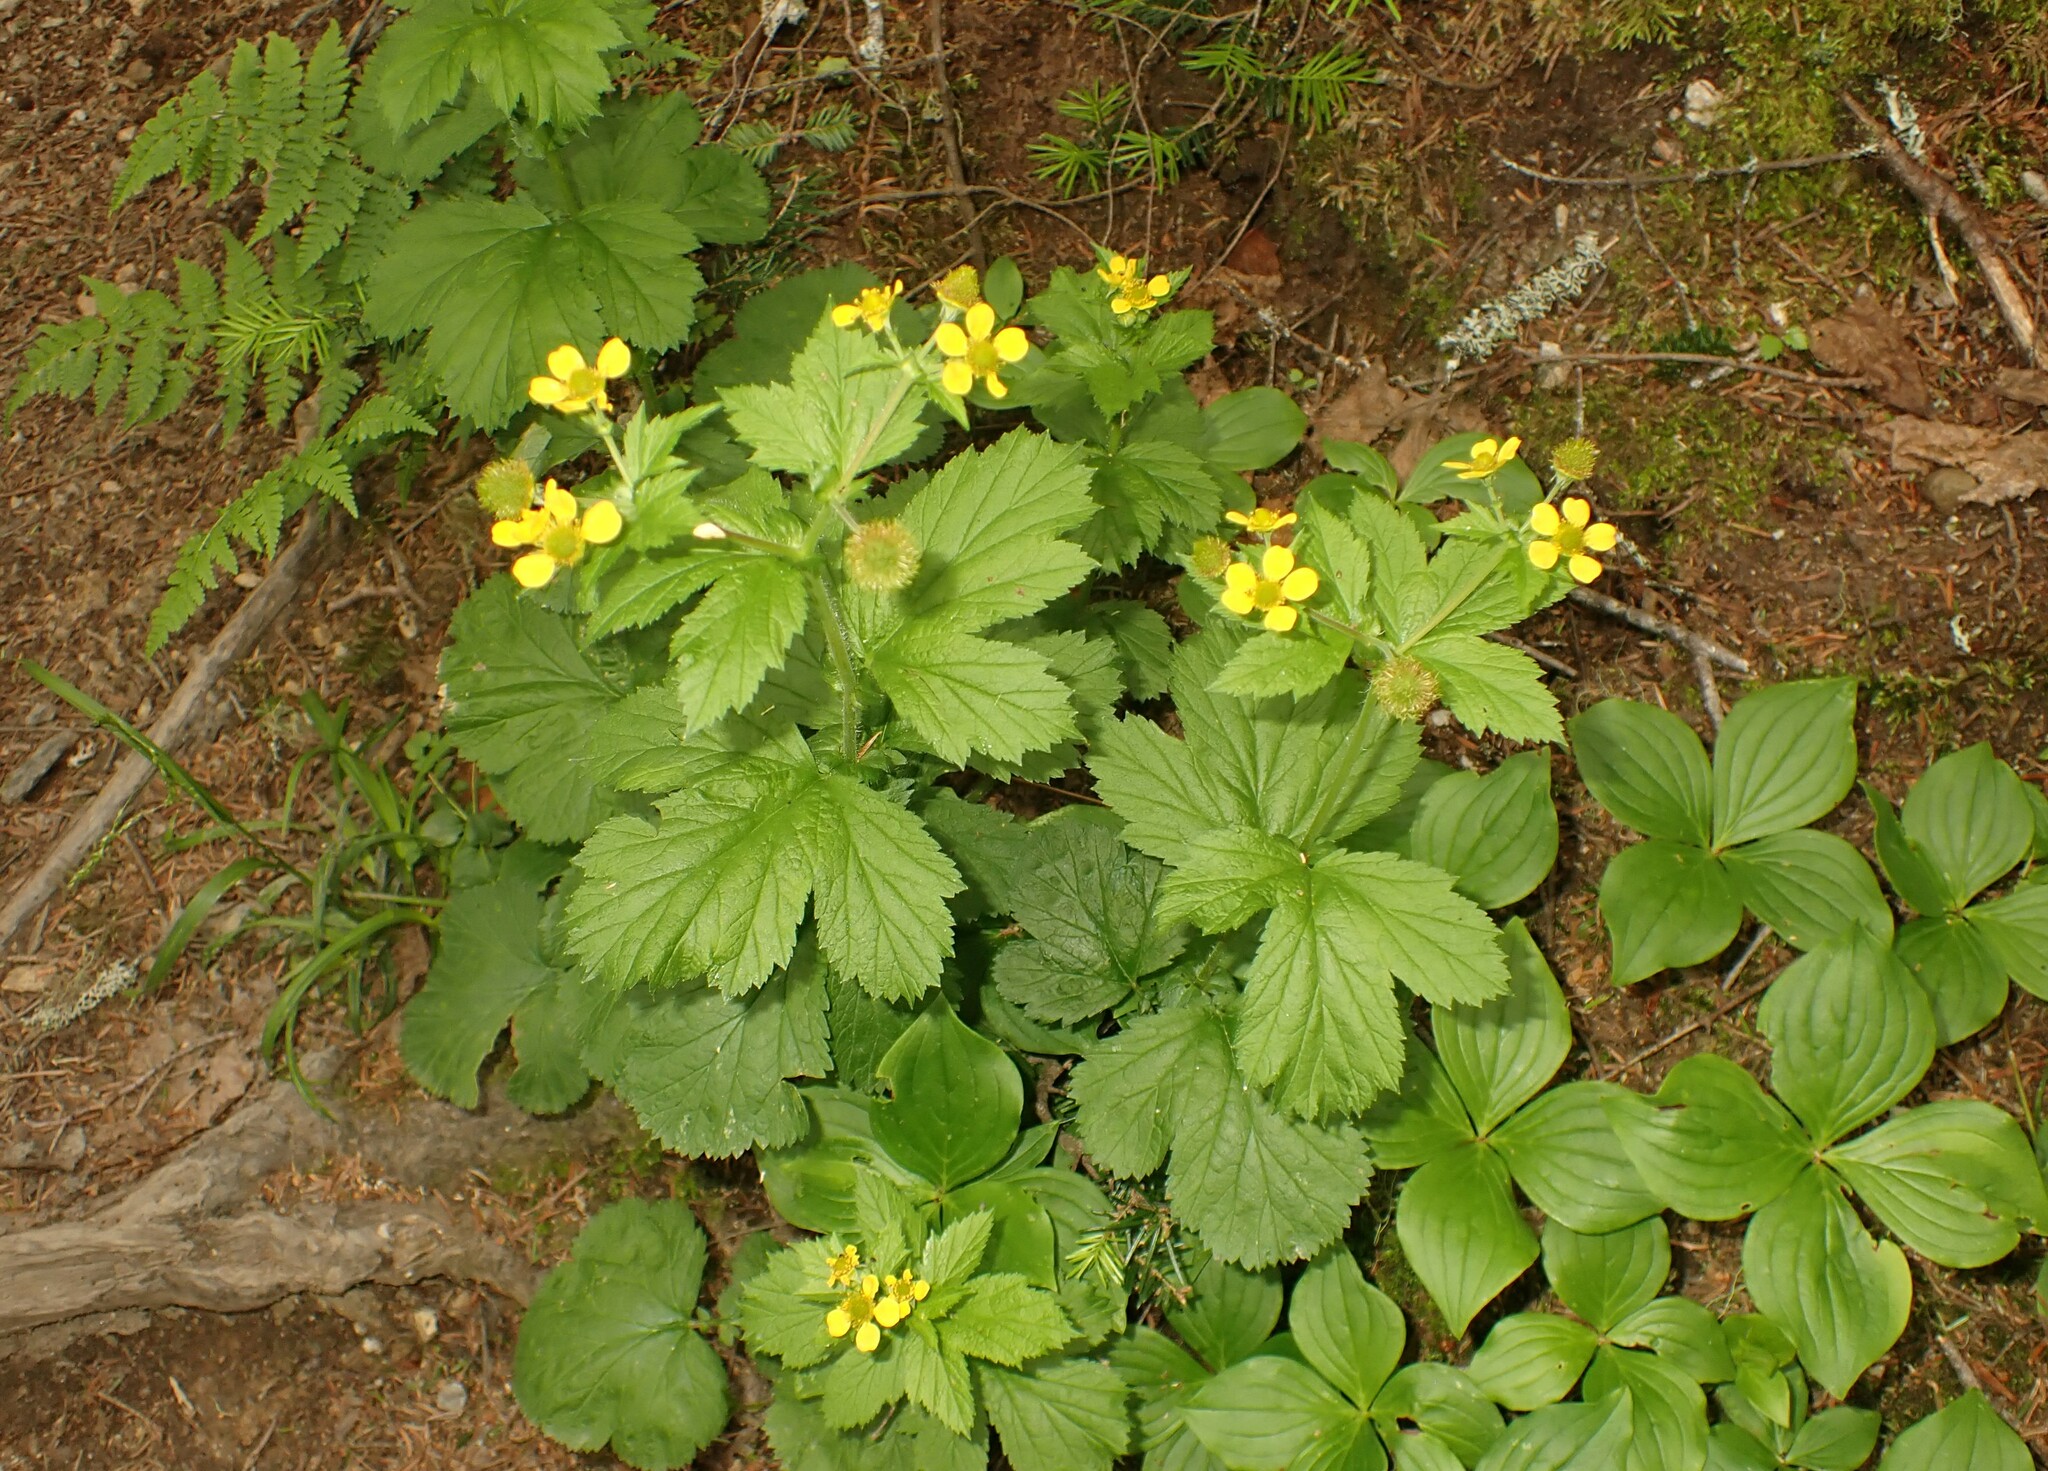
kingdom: Plantae
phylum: Tracheophyta
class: Magnoliopsida
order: Rosales
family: Rosaceae
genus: Geum
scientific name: Geum macrophyllum
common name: Large-leaved avens
